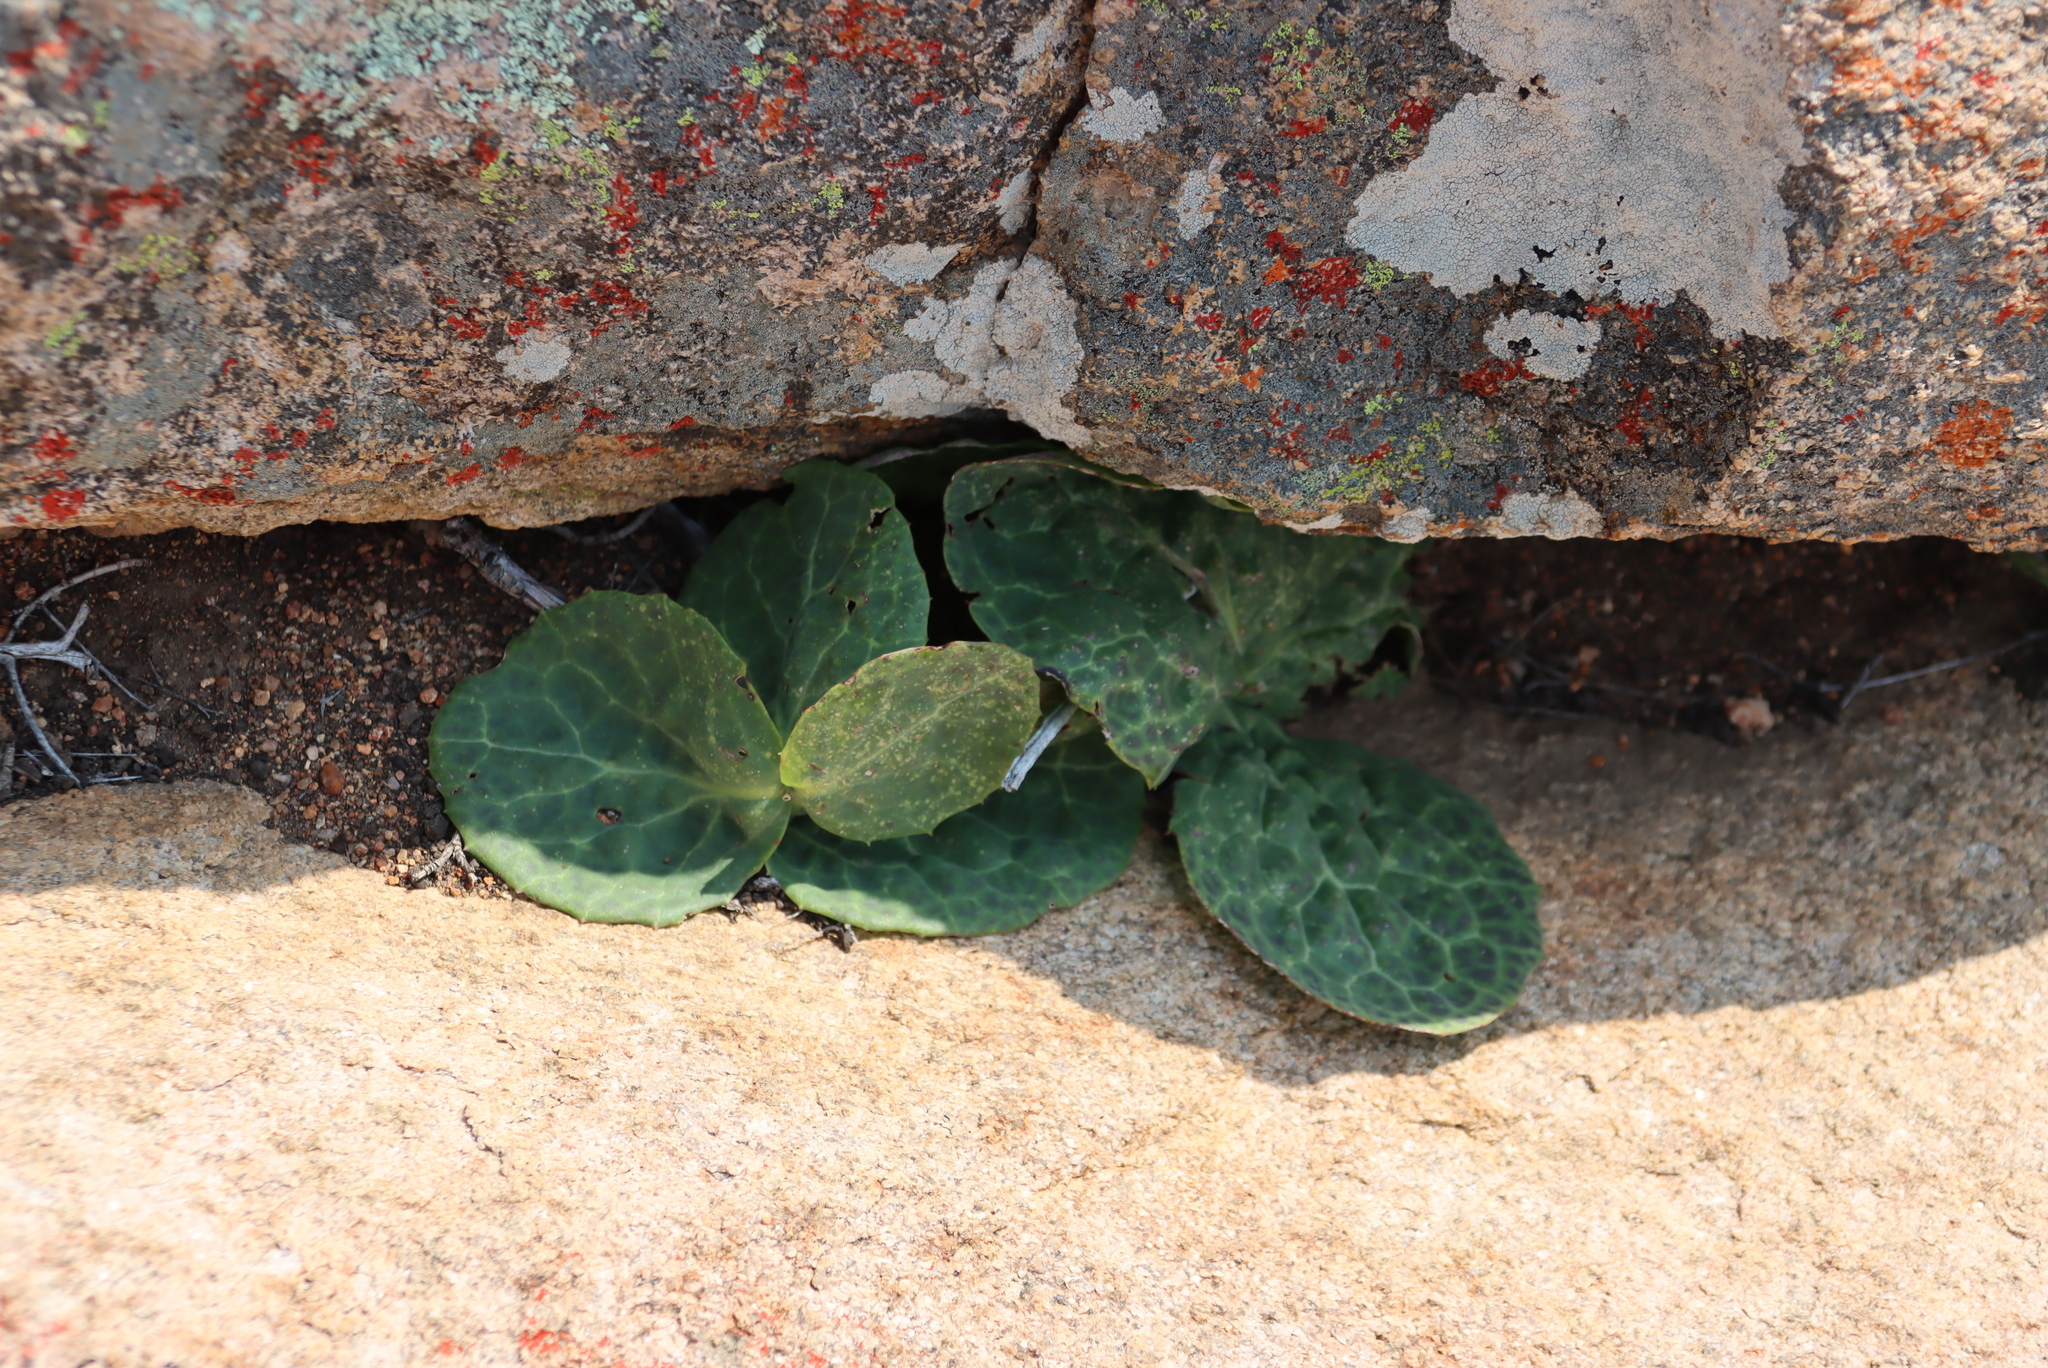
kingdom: Plantae
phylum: Tracheophyta
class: Magnoliopsida
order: Asterales
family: Asteraceae
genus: Othonna
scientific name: Othonna macrophylla
